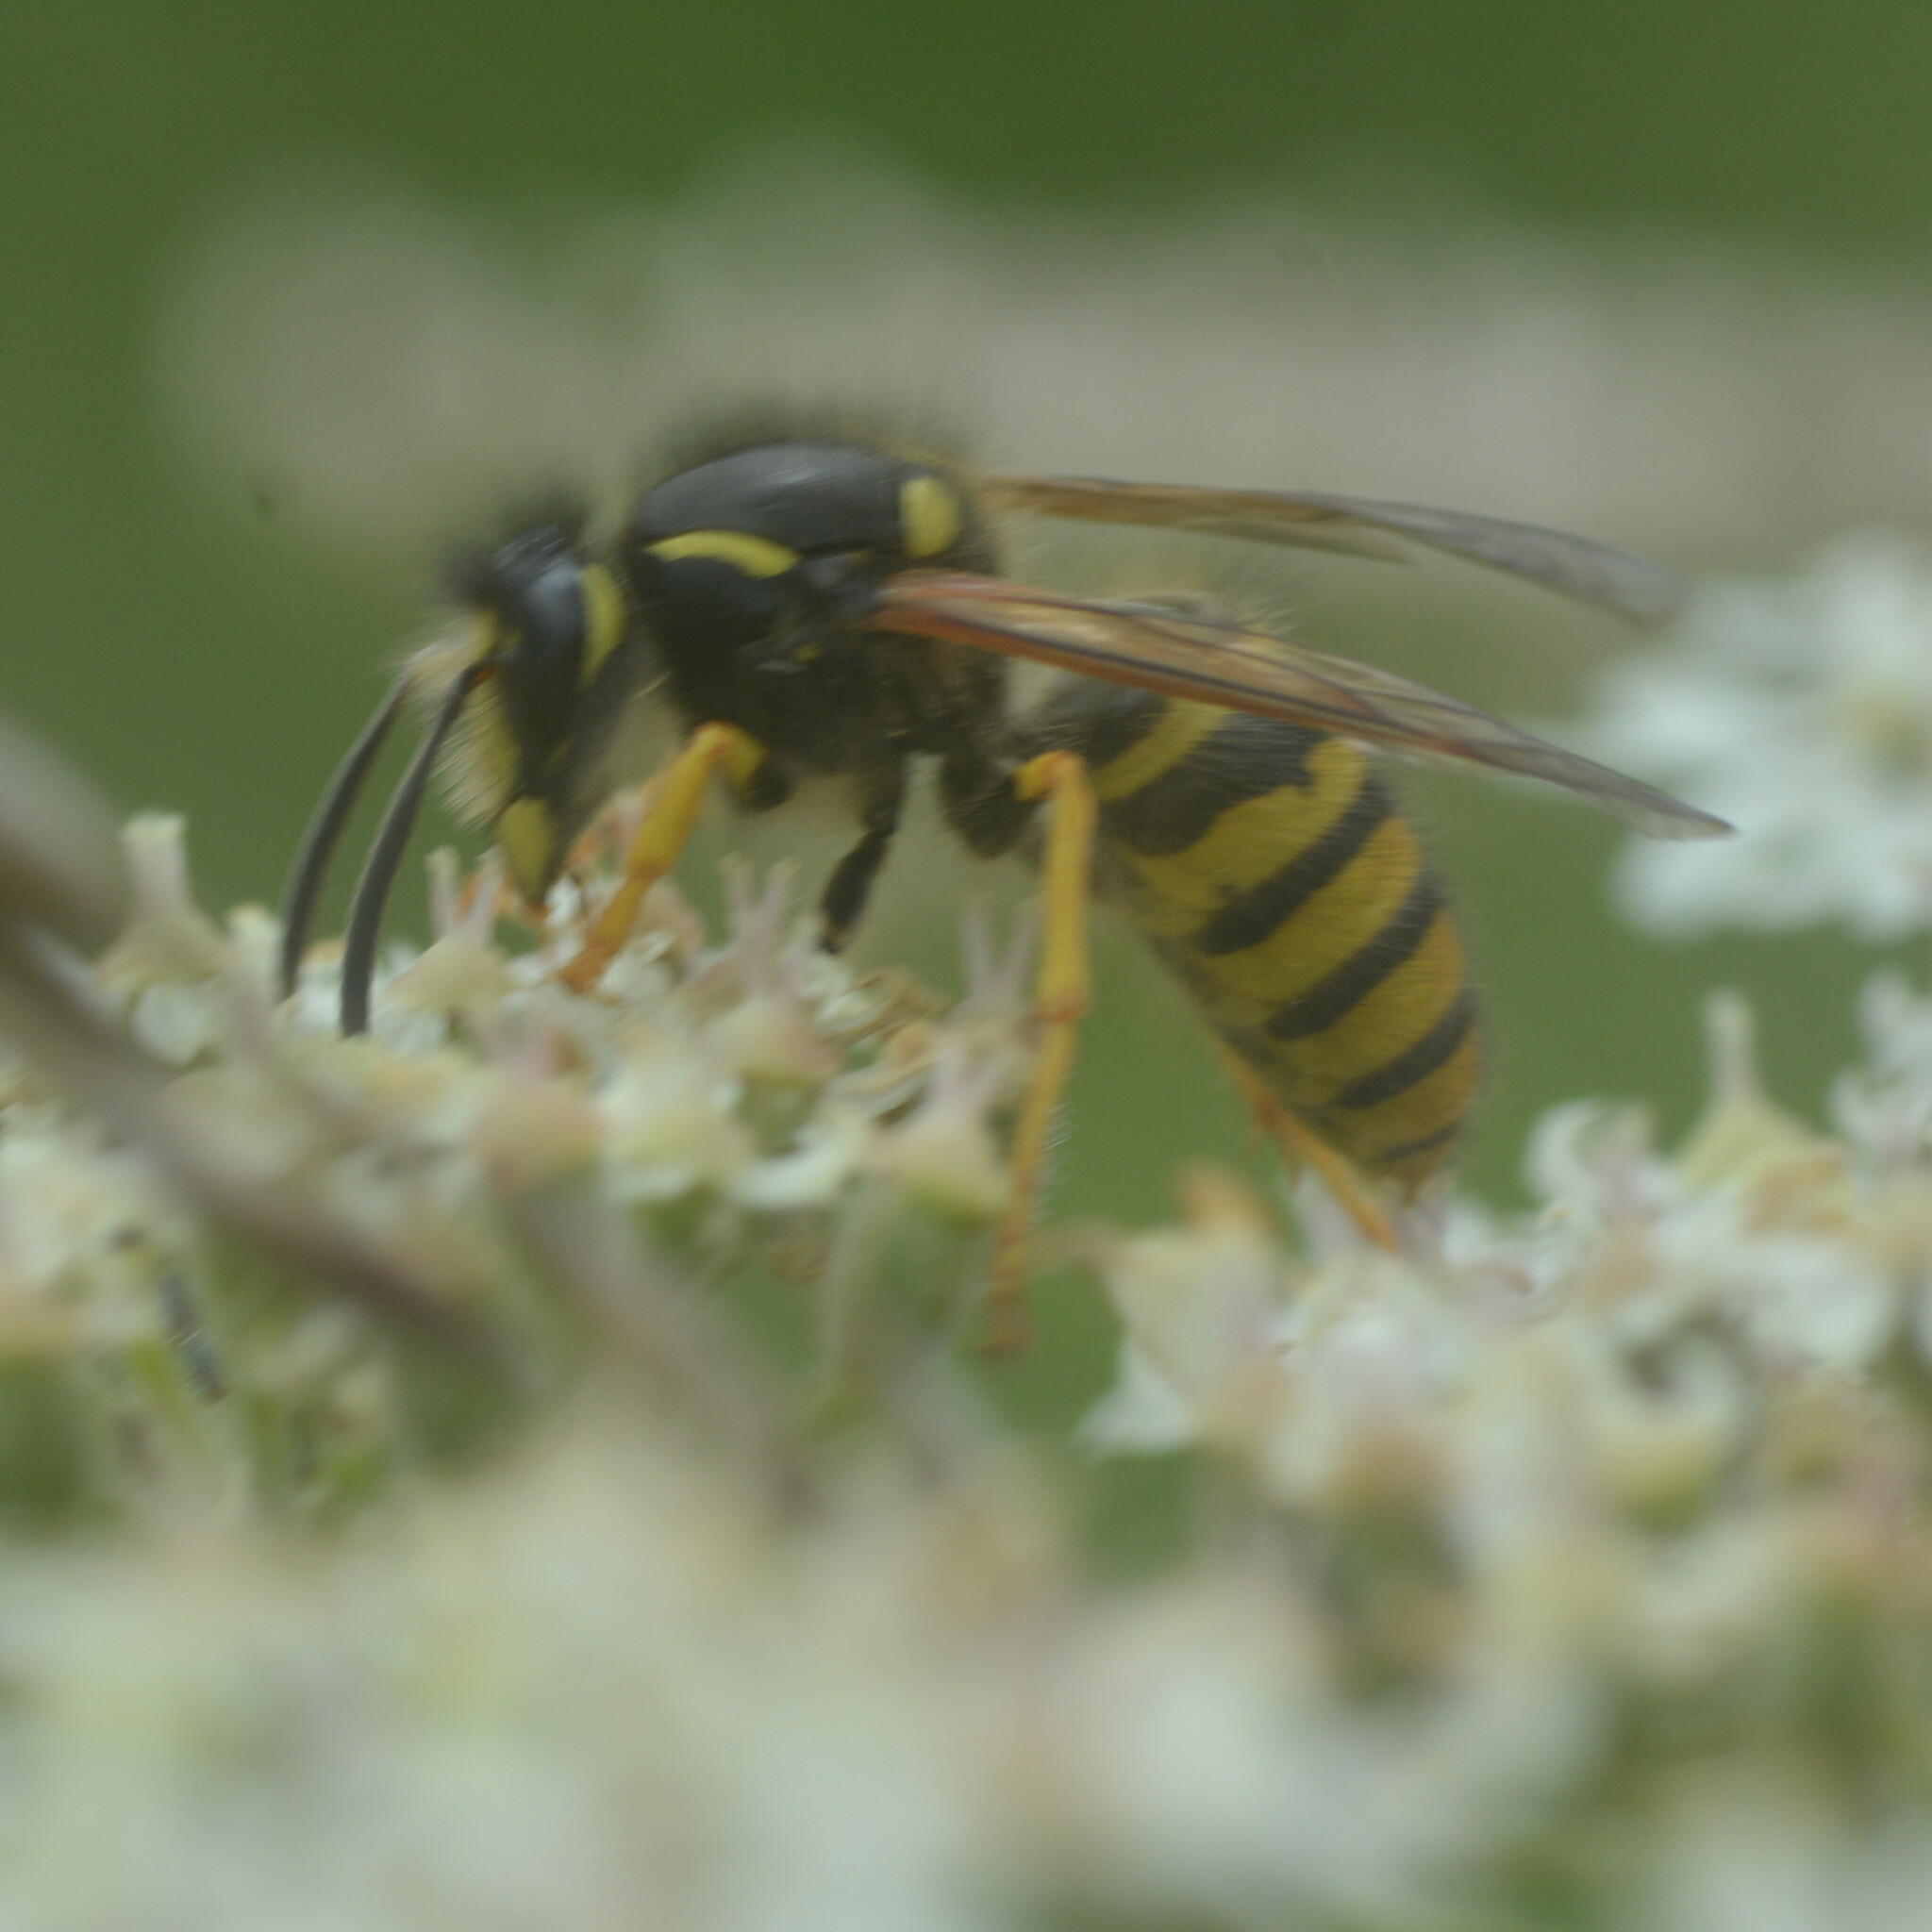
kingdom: Animalia
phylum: Arthropoda
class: Insecta
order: Hymenoptera
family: Vespidae
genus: Dolichovespula
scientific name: Dolichovespula sylvestris
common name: Tree wasp
